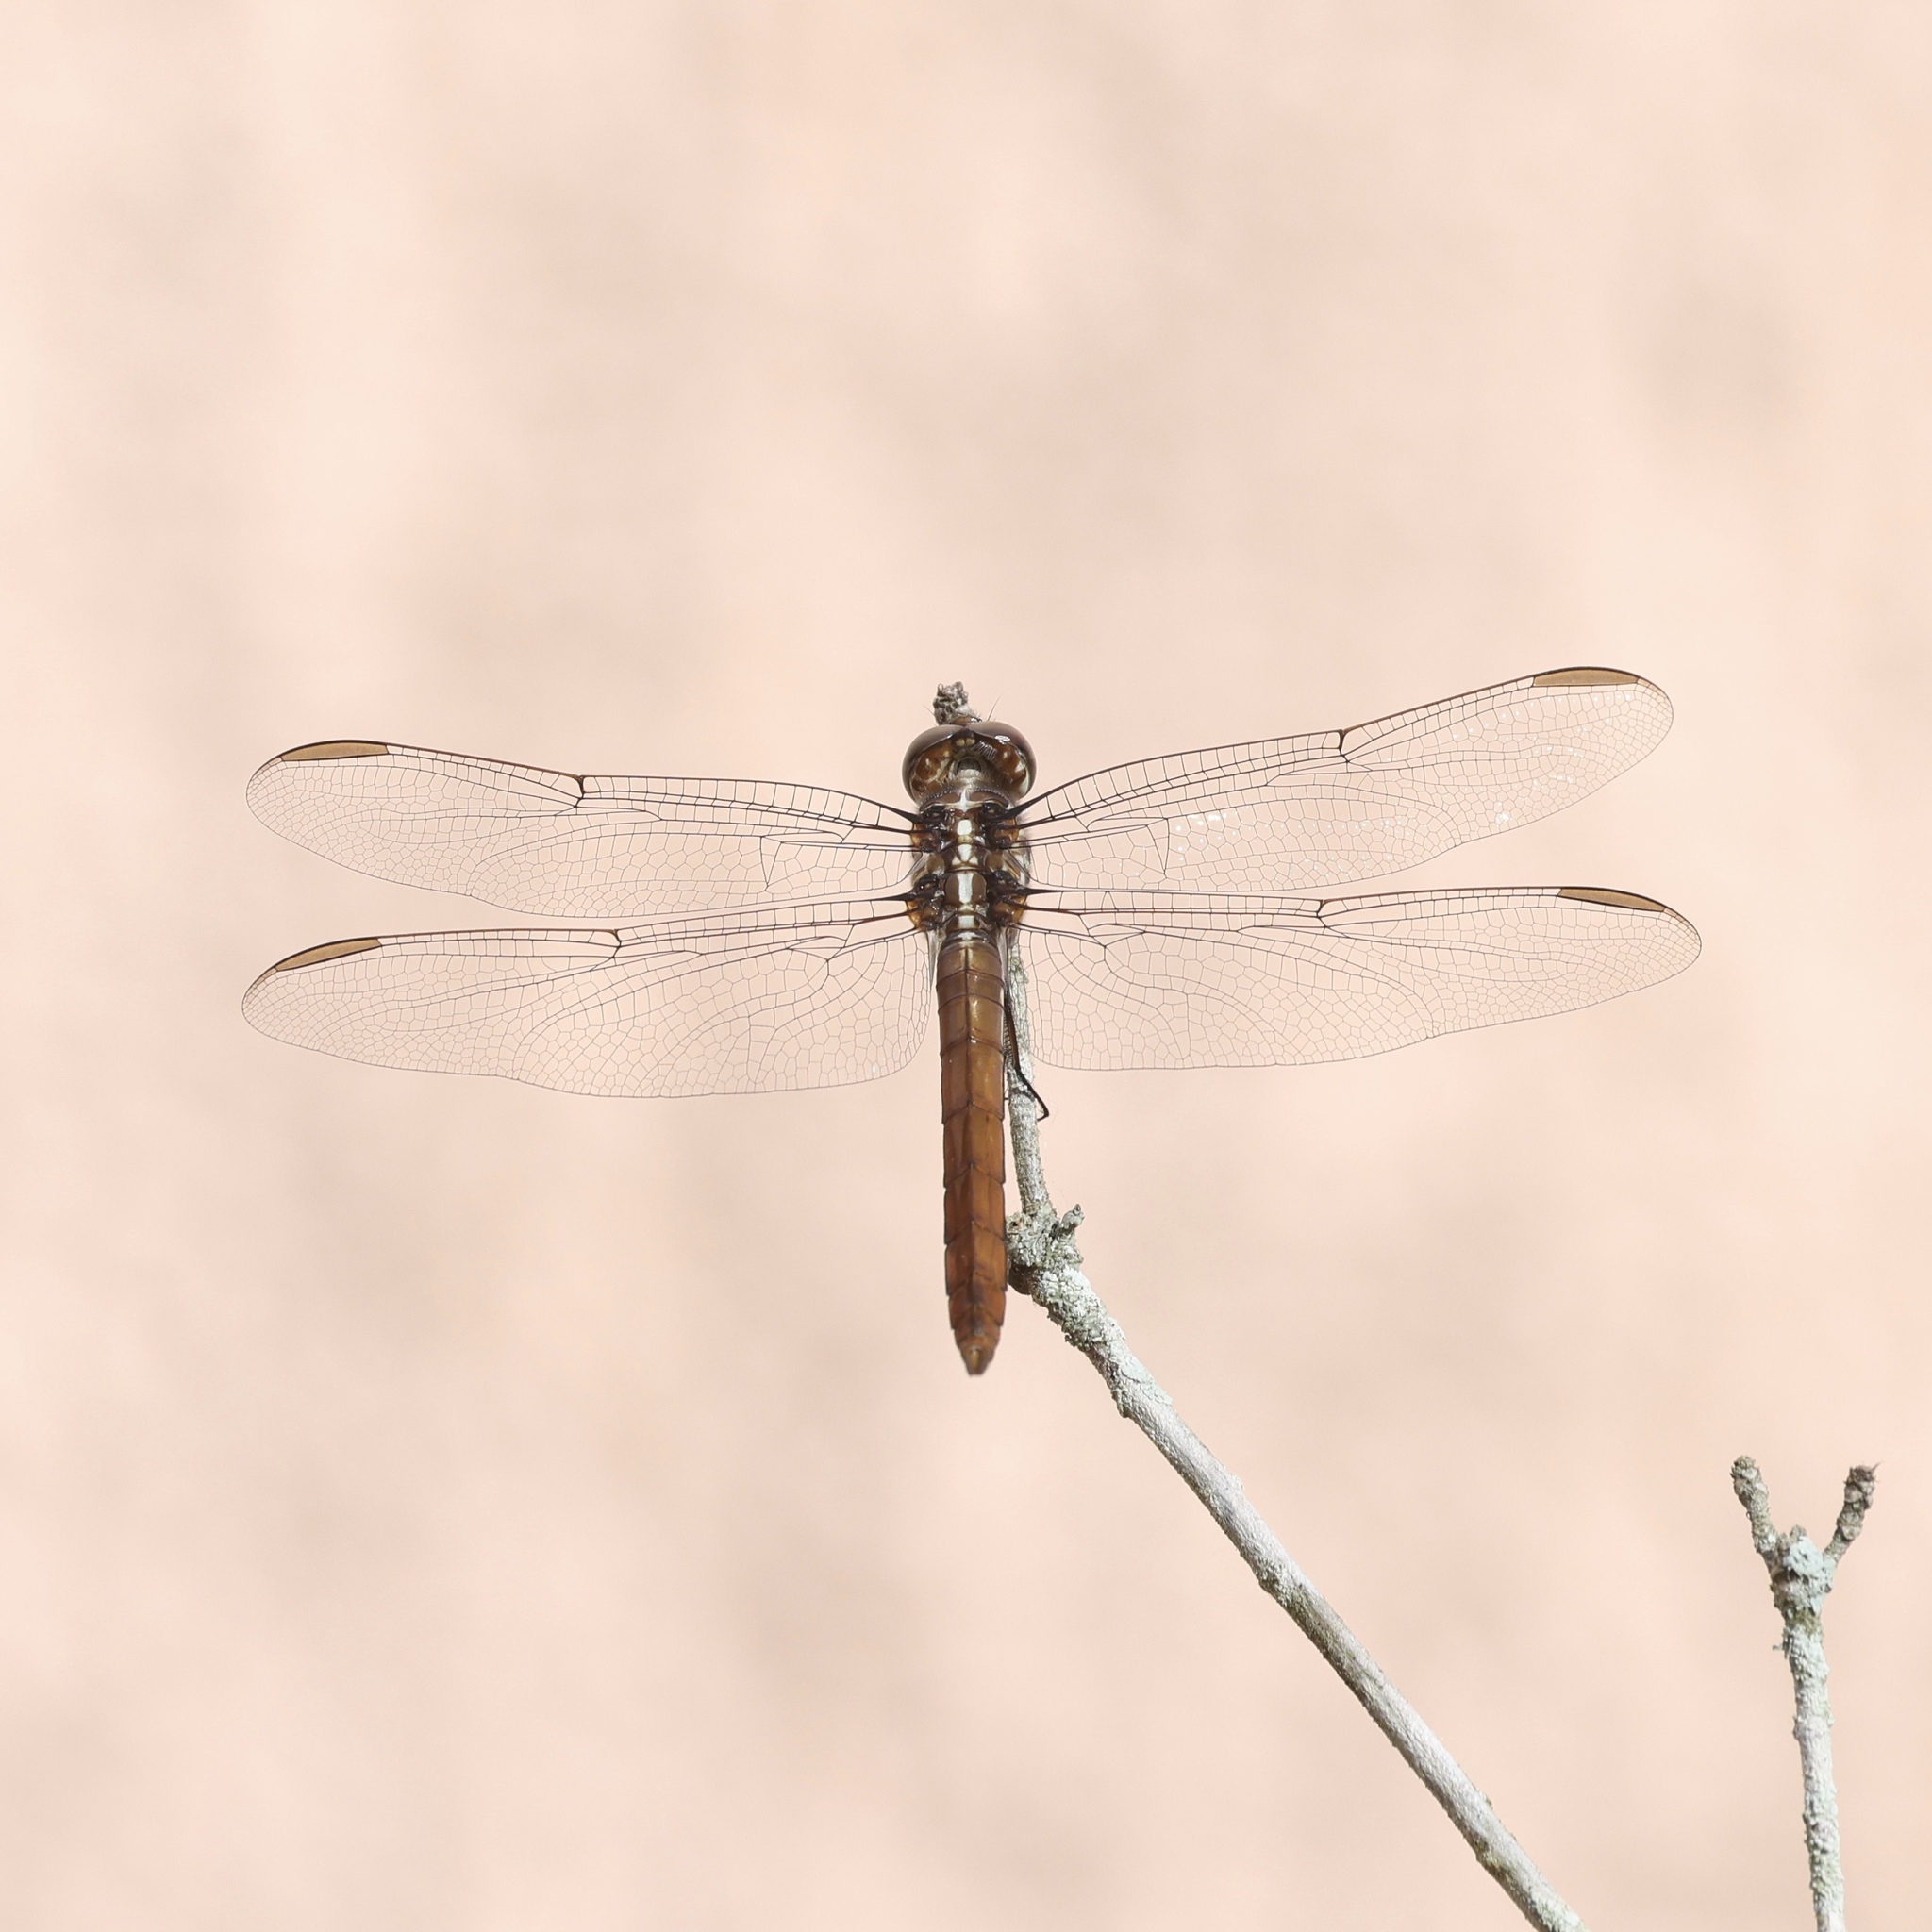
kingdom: Animalia
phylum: Arthropoda
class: Insecta
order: Odonata
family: Libellulidae
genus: Orthemis
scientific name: Orthemis ferruginea
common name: Roseate skimmer
